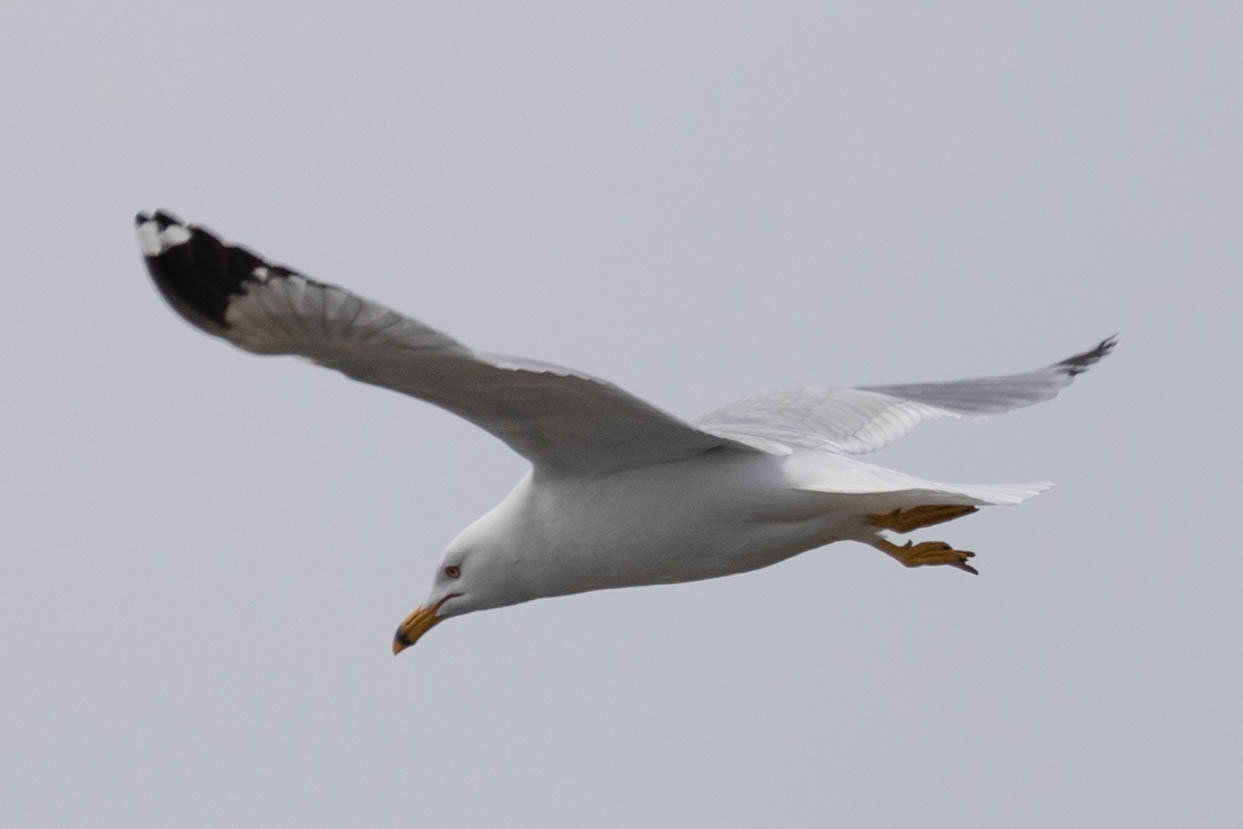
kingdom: Animalia
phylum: Chordata
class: Aves
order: Charadriiformes
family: Laridae
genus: Larus
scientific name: Larus delawarensis
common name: Ring-billed gull
